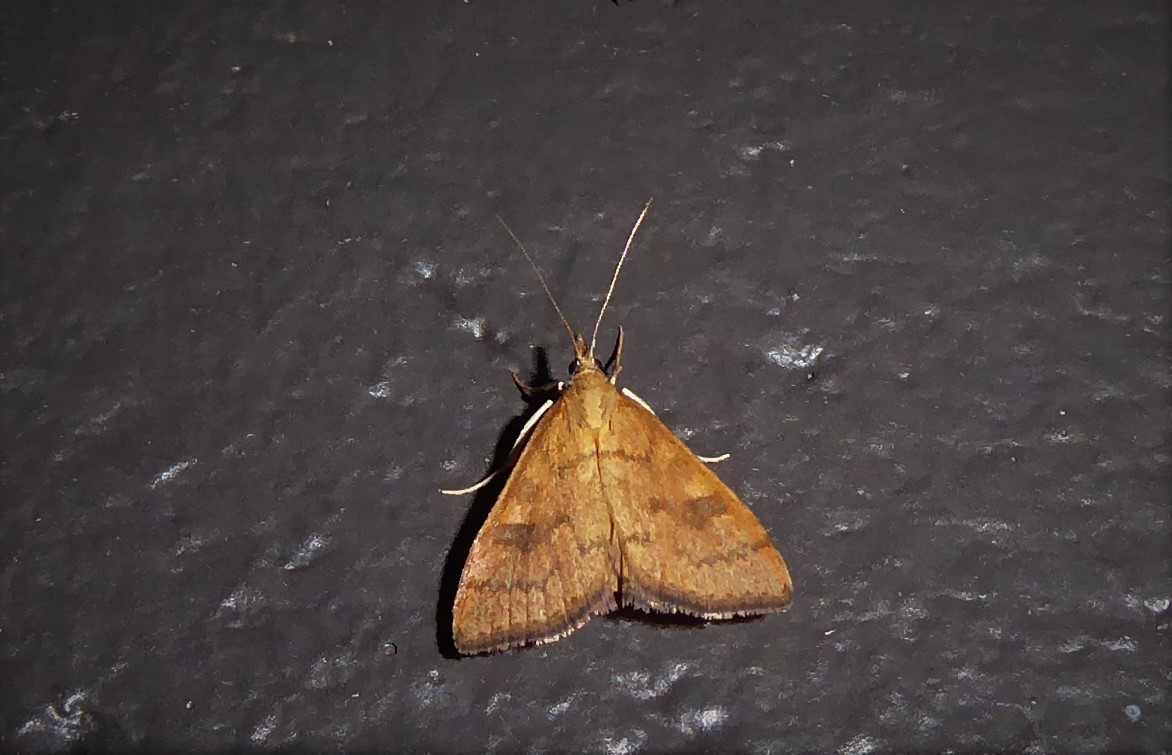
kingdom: Animalia
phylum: Arthropoda
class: Insecta
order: Lepidoptera
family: Crambidae
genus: Udea
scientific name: Udea Mnesictena flavidalis
